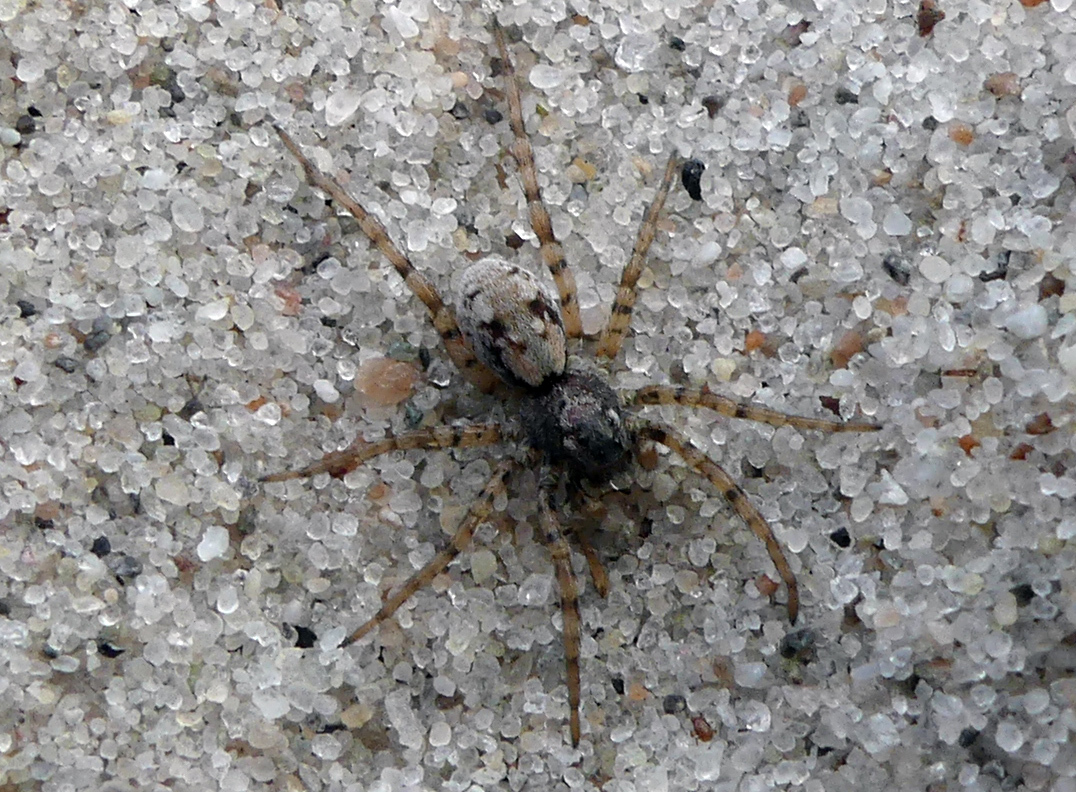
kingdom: Animalia
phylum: Arthropoda
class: Arachnida
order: Araneae
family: Lycosidae
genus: Arctosa
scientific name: Arctosa perita
